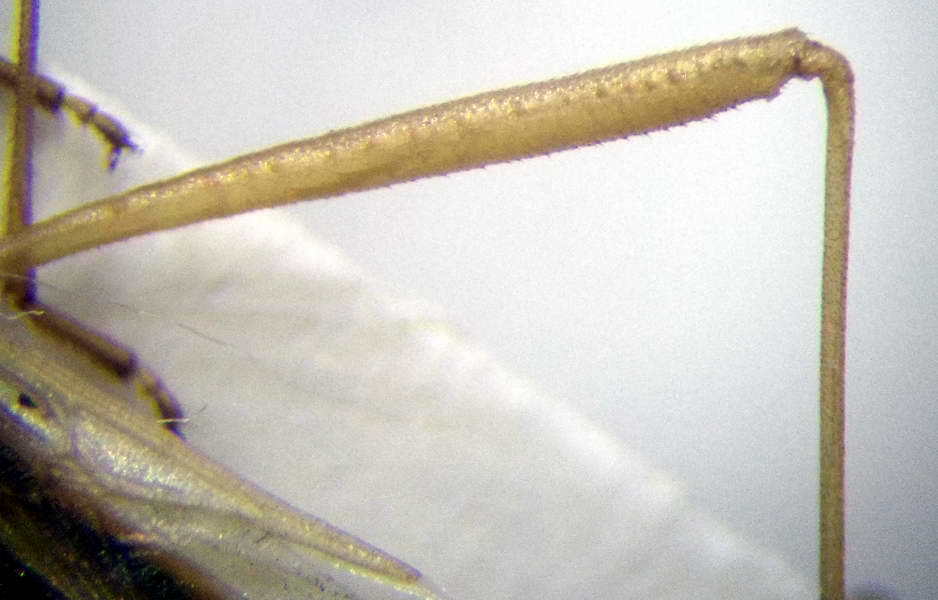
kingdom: Animalia
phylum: Arthropoda
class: Insecta
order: Hemiptera
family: Rhopalidae
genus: Chorosoma
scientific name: Chorosoma schillingii
